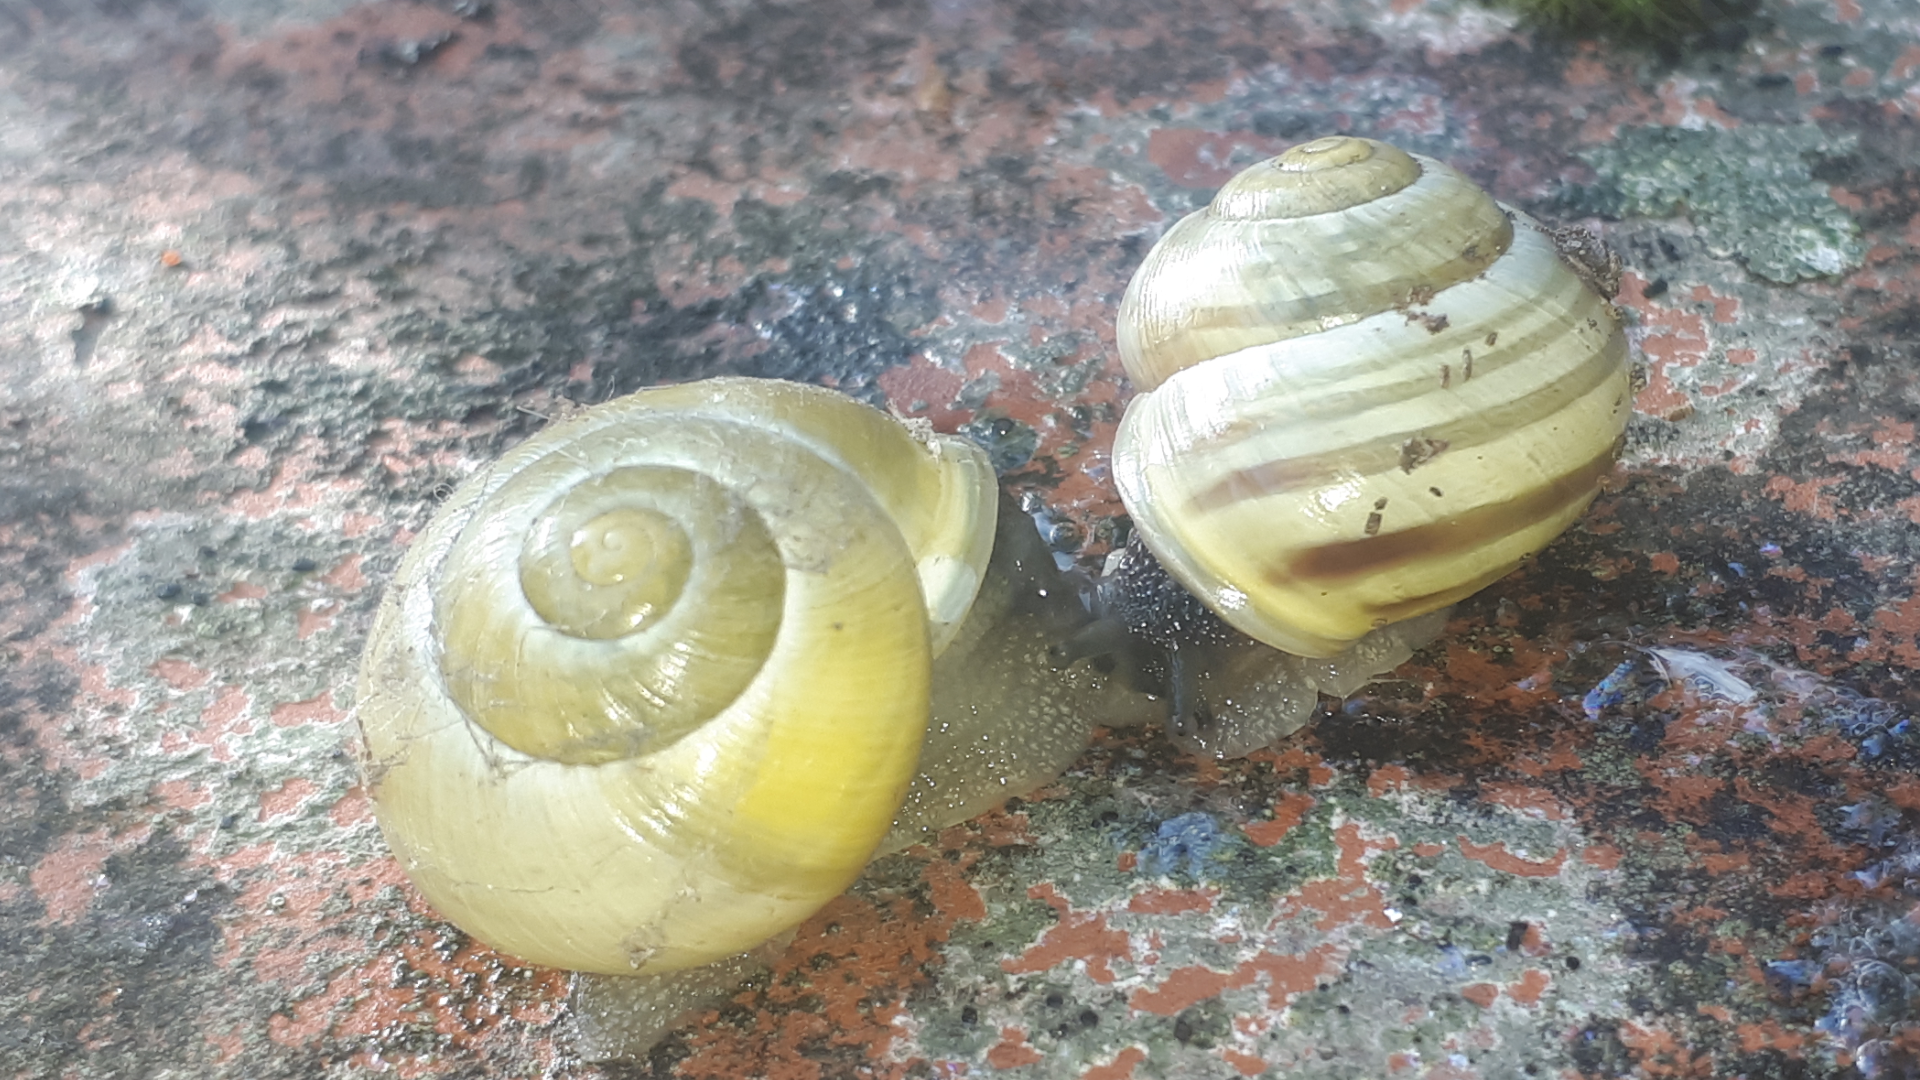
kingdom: Animalia
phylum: Mollusca
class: Gastropoda
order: Stylommatophora
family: Helicidae
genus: Cepaea
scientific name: Cepaea hortensis
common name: White-lip gardensnail
